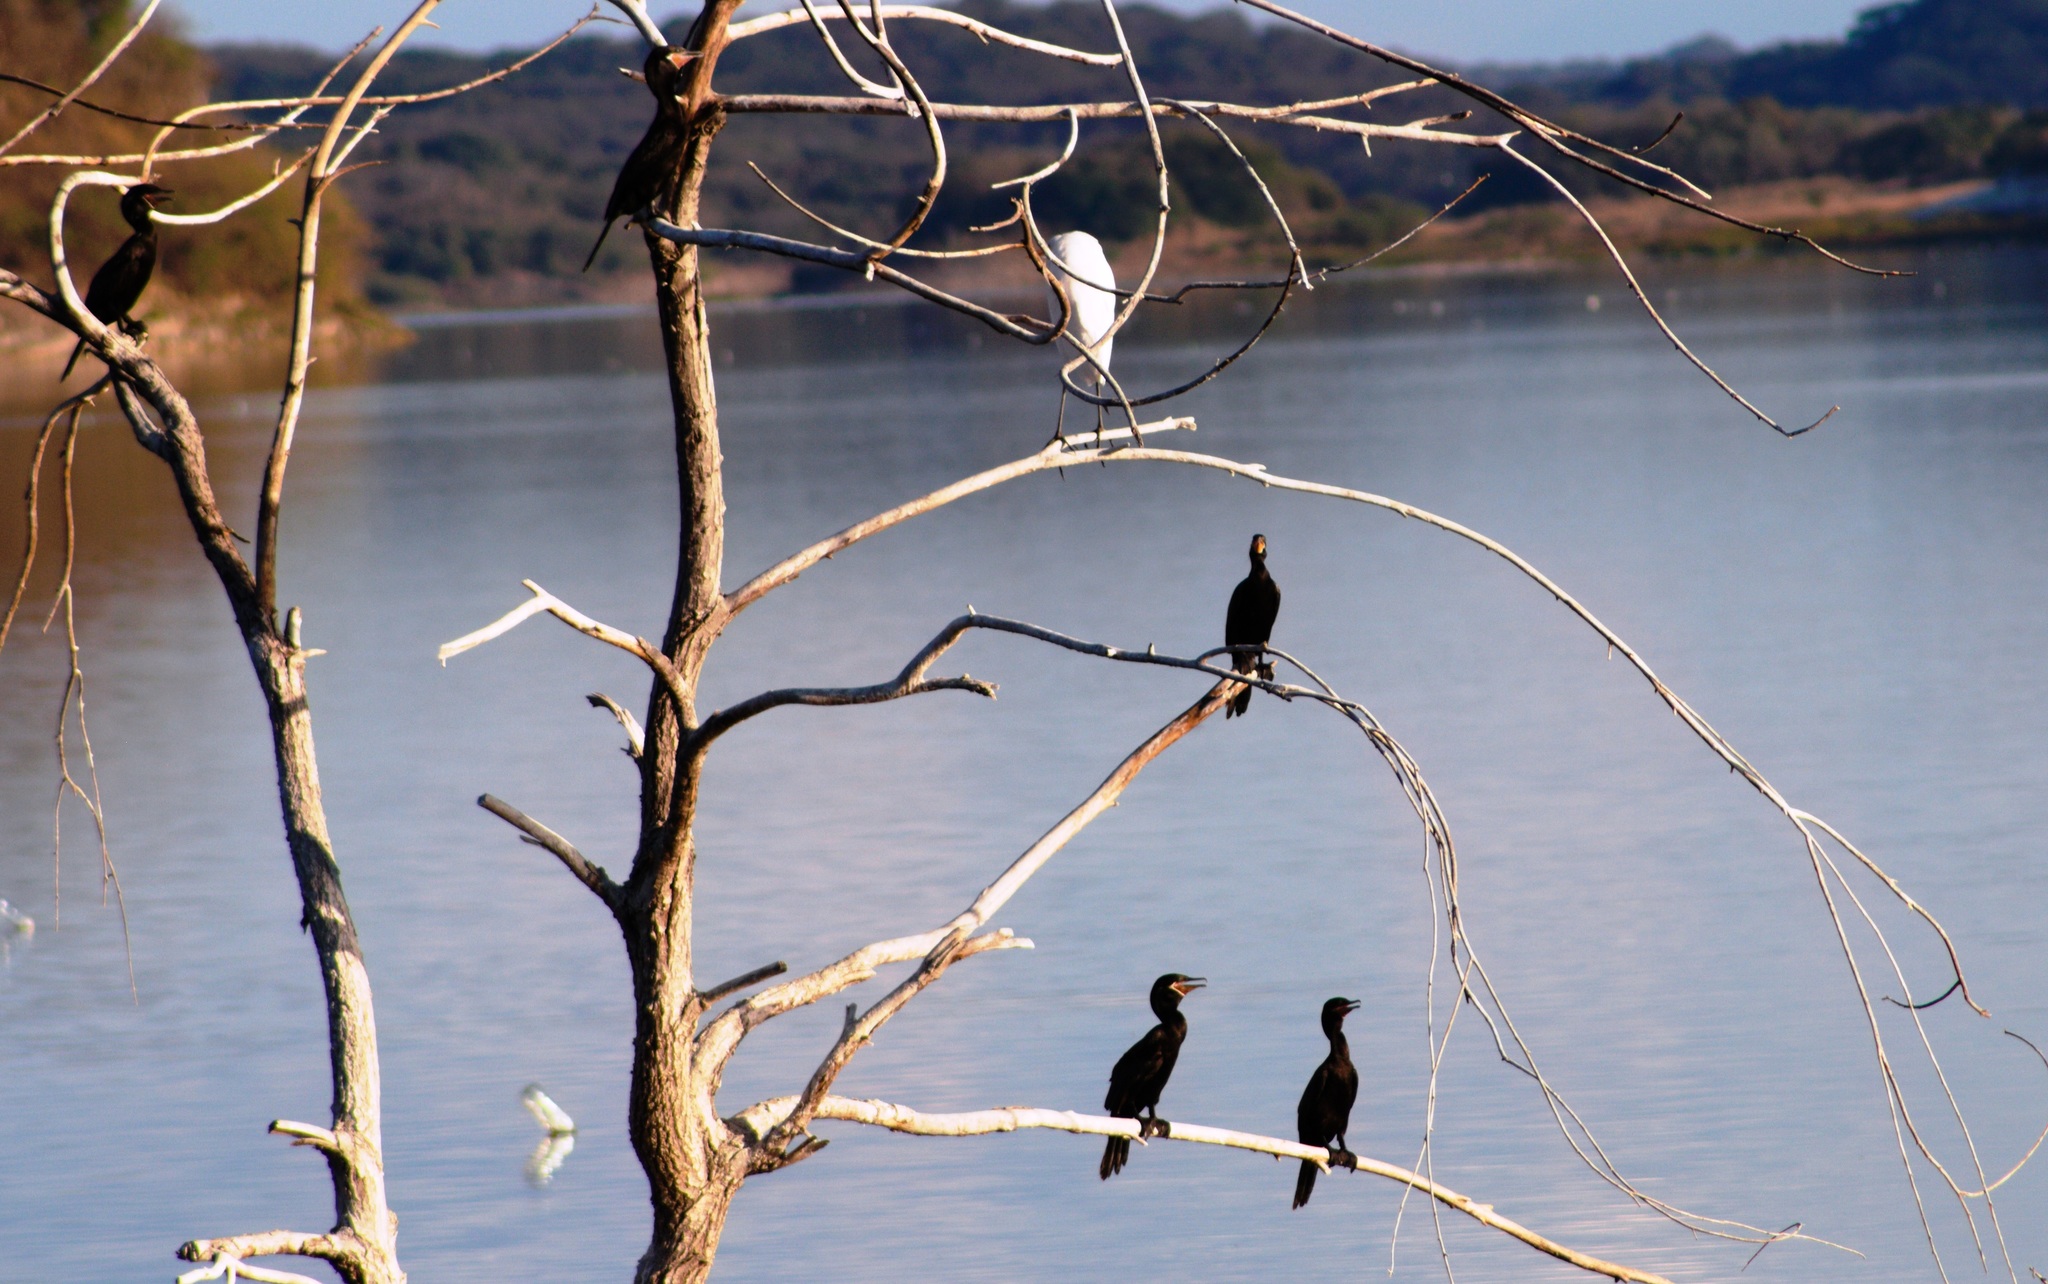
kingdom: Animalia
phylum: Chordata
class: Aves
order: Suliformes
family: Phalacrocoracidae
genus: Phalacrocorax
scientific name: Phalacrocorax brasilianus
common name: Neotropic cormorant
